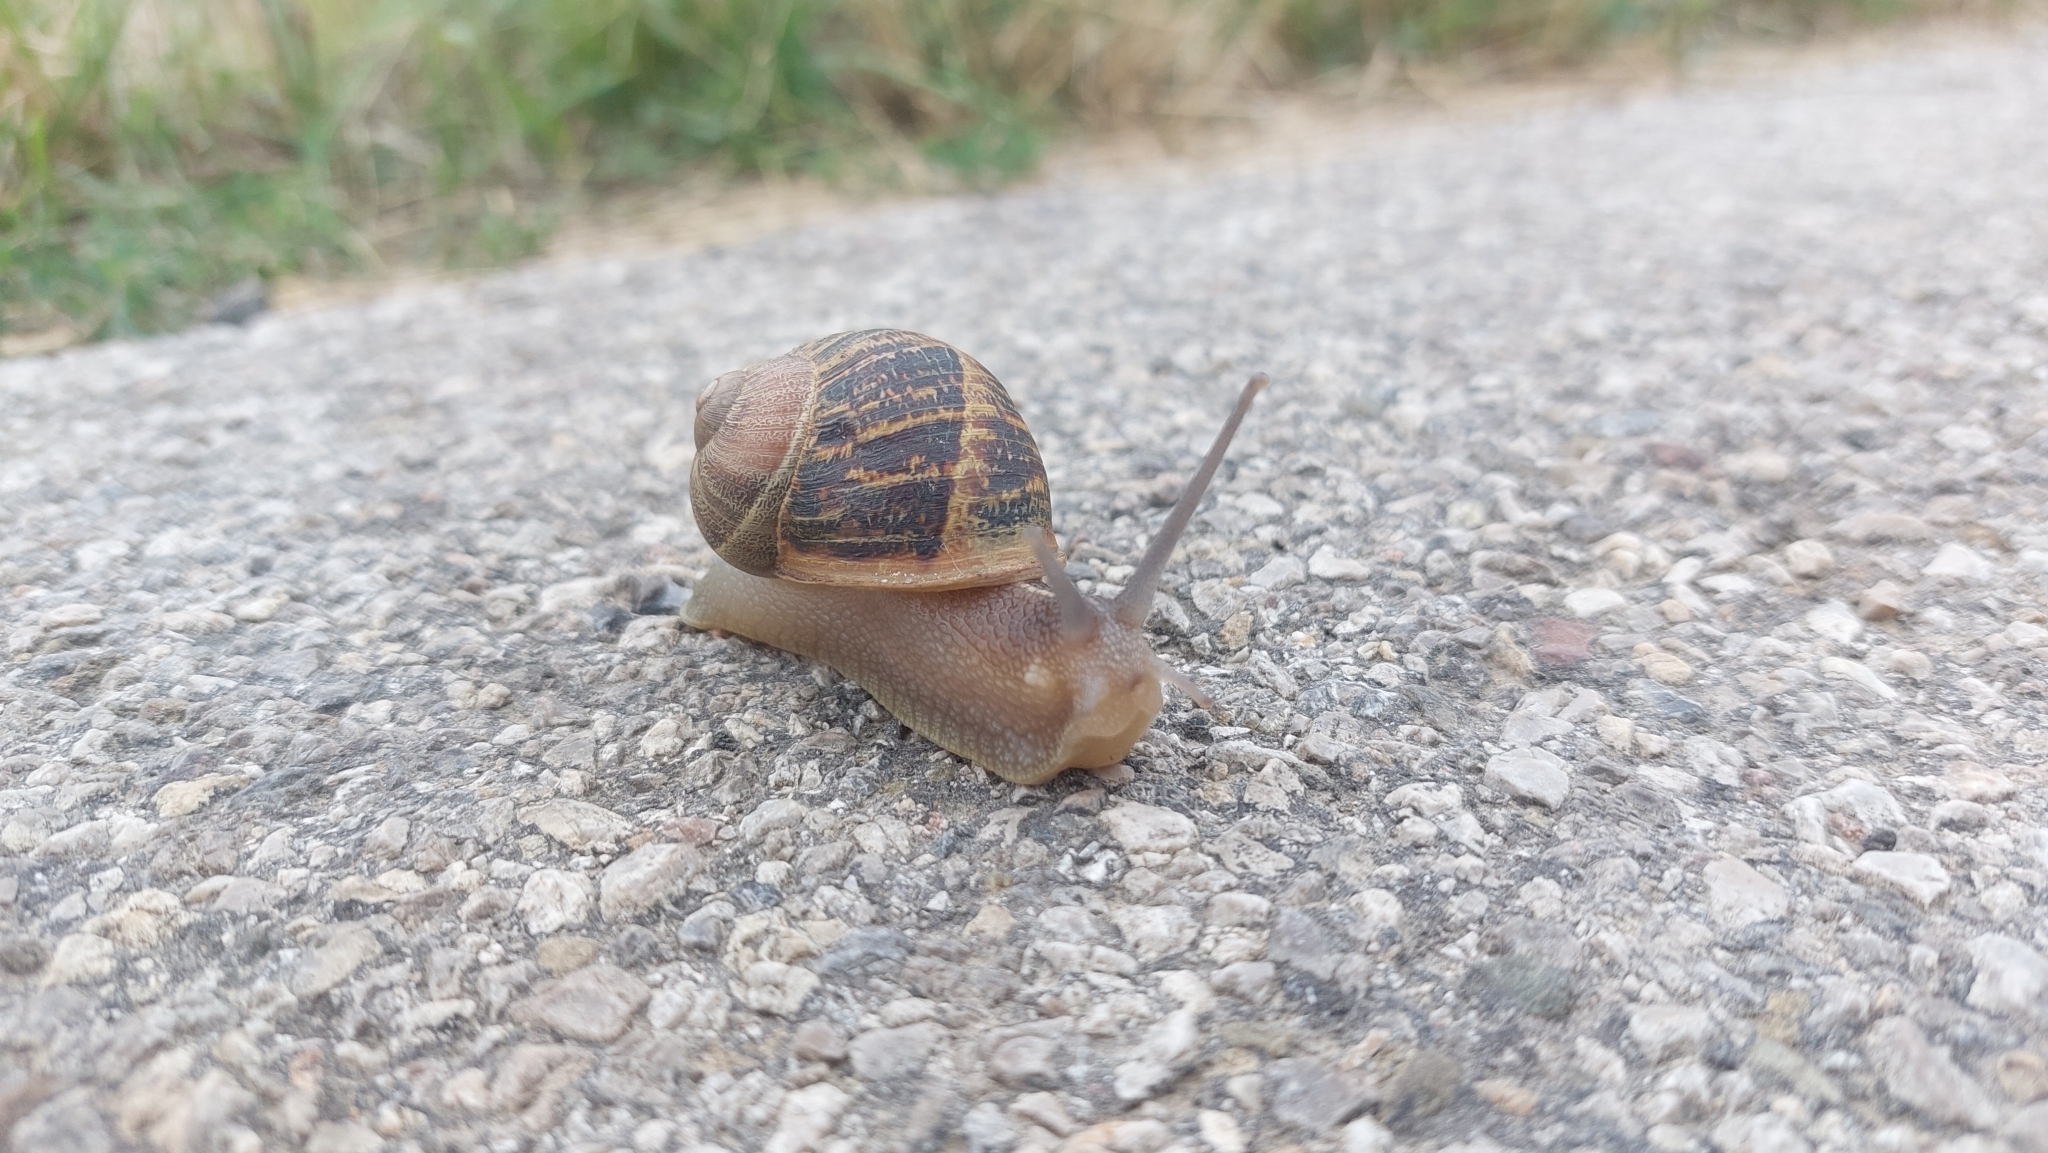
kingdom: Animalia
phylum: Mollusca
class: Gastropoda
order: Stylommatophora
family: Helicidae
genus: Cornu
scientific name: Cornu aspersum
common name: Brown garden snail
